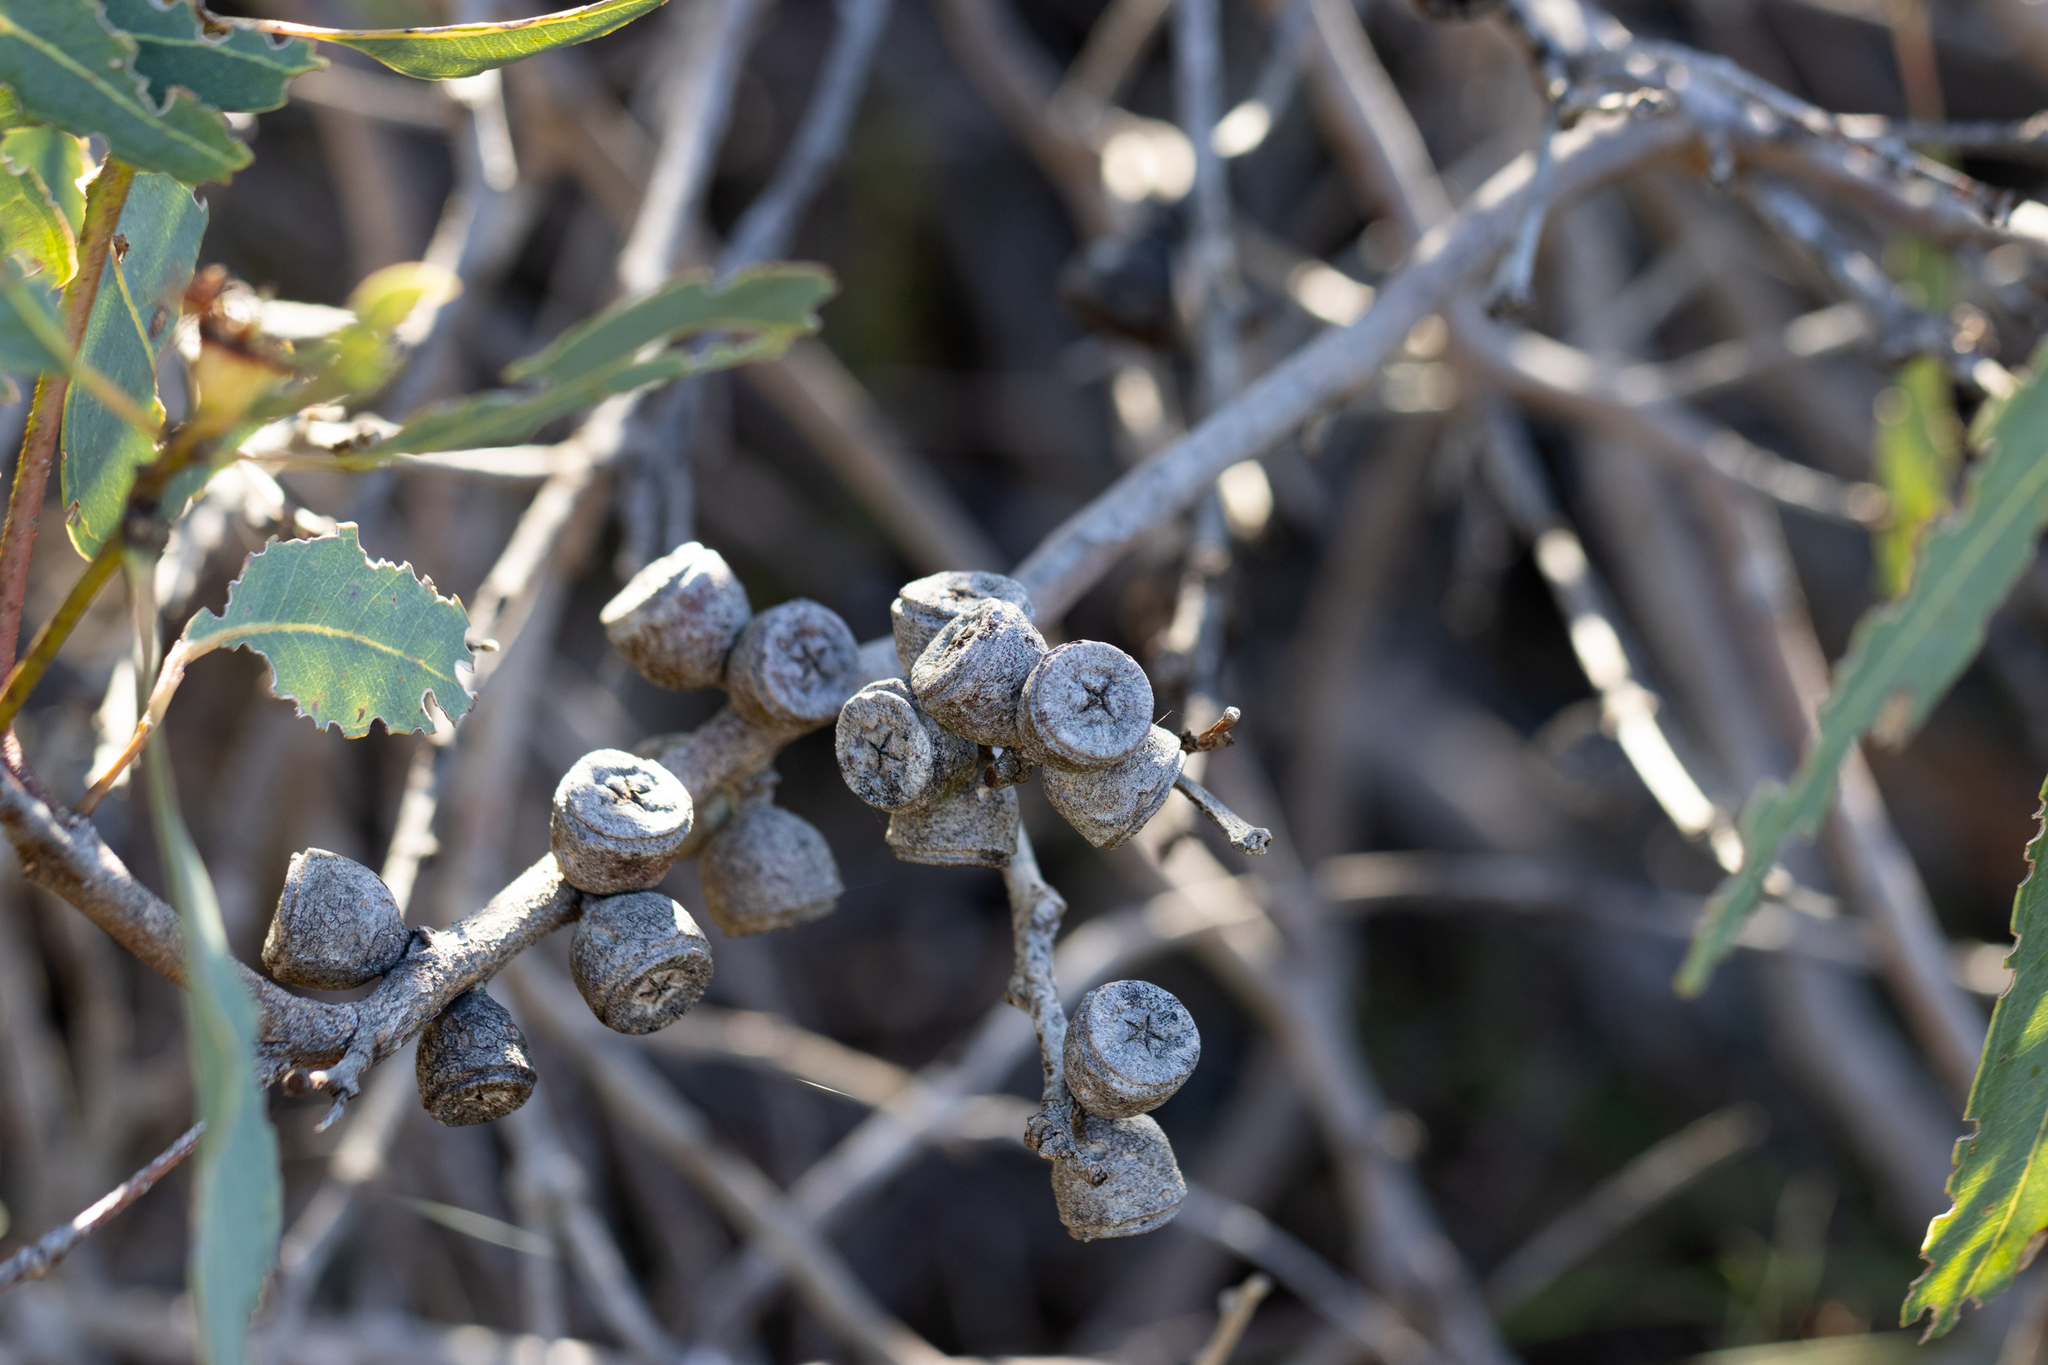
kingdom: Plantae
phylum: Tracheophyta
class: Magnoliopsida
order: Myrtales
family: Myrtaceae
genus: Eucalyptus
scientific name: Eucalyptus cosmophylla
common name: Bog-gum
